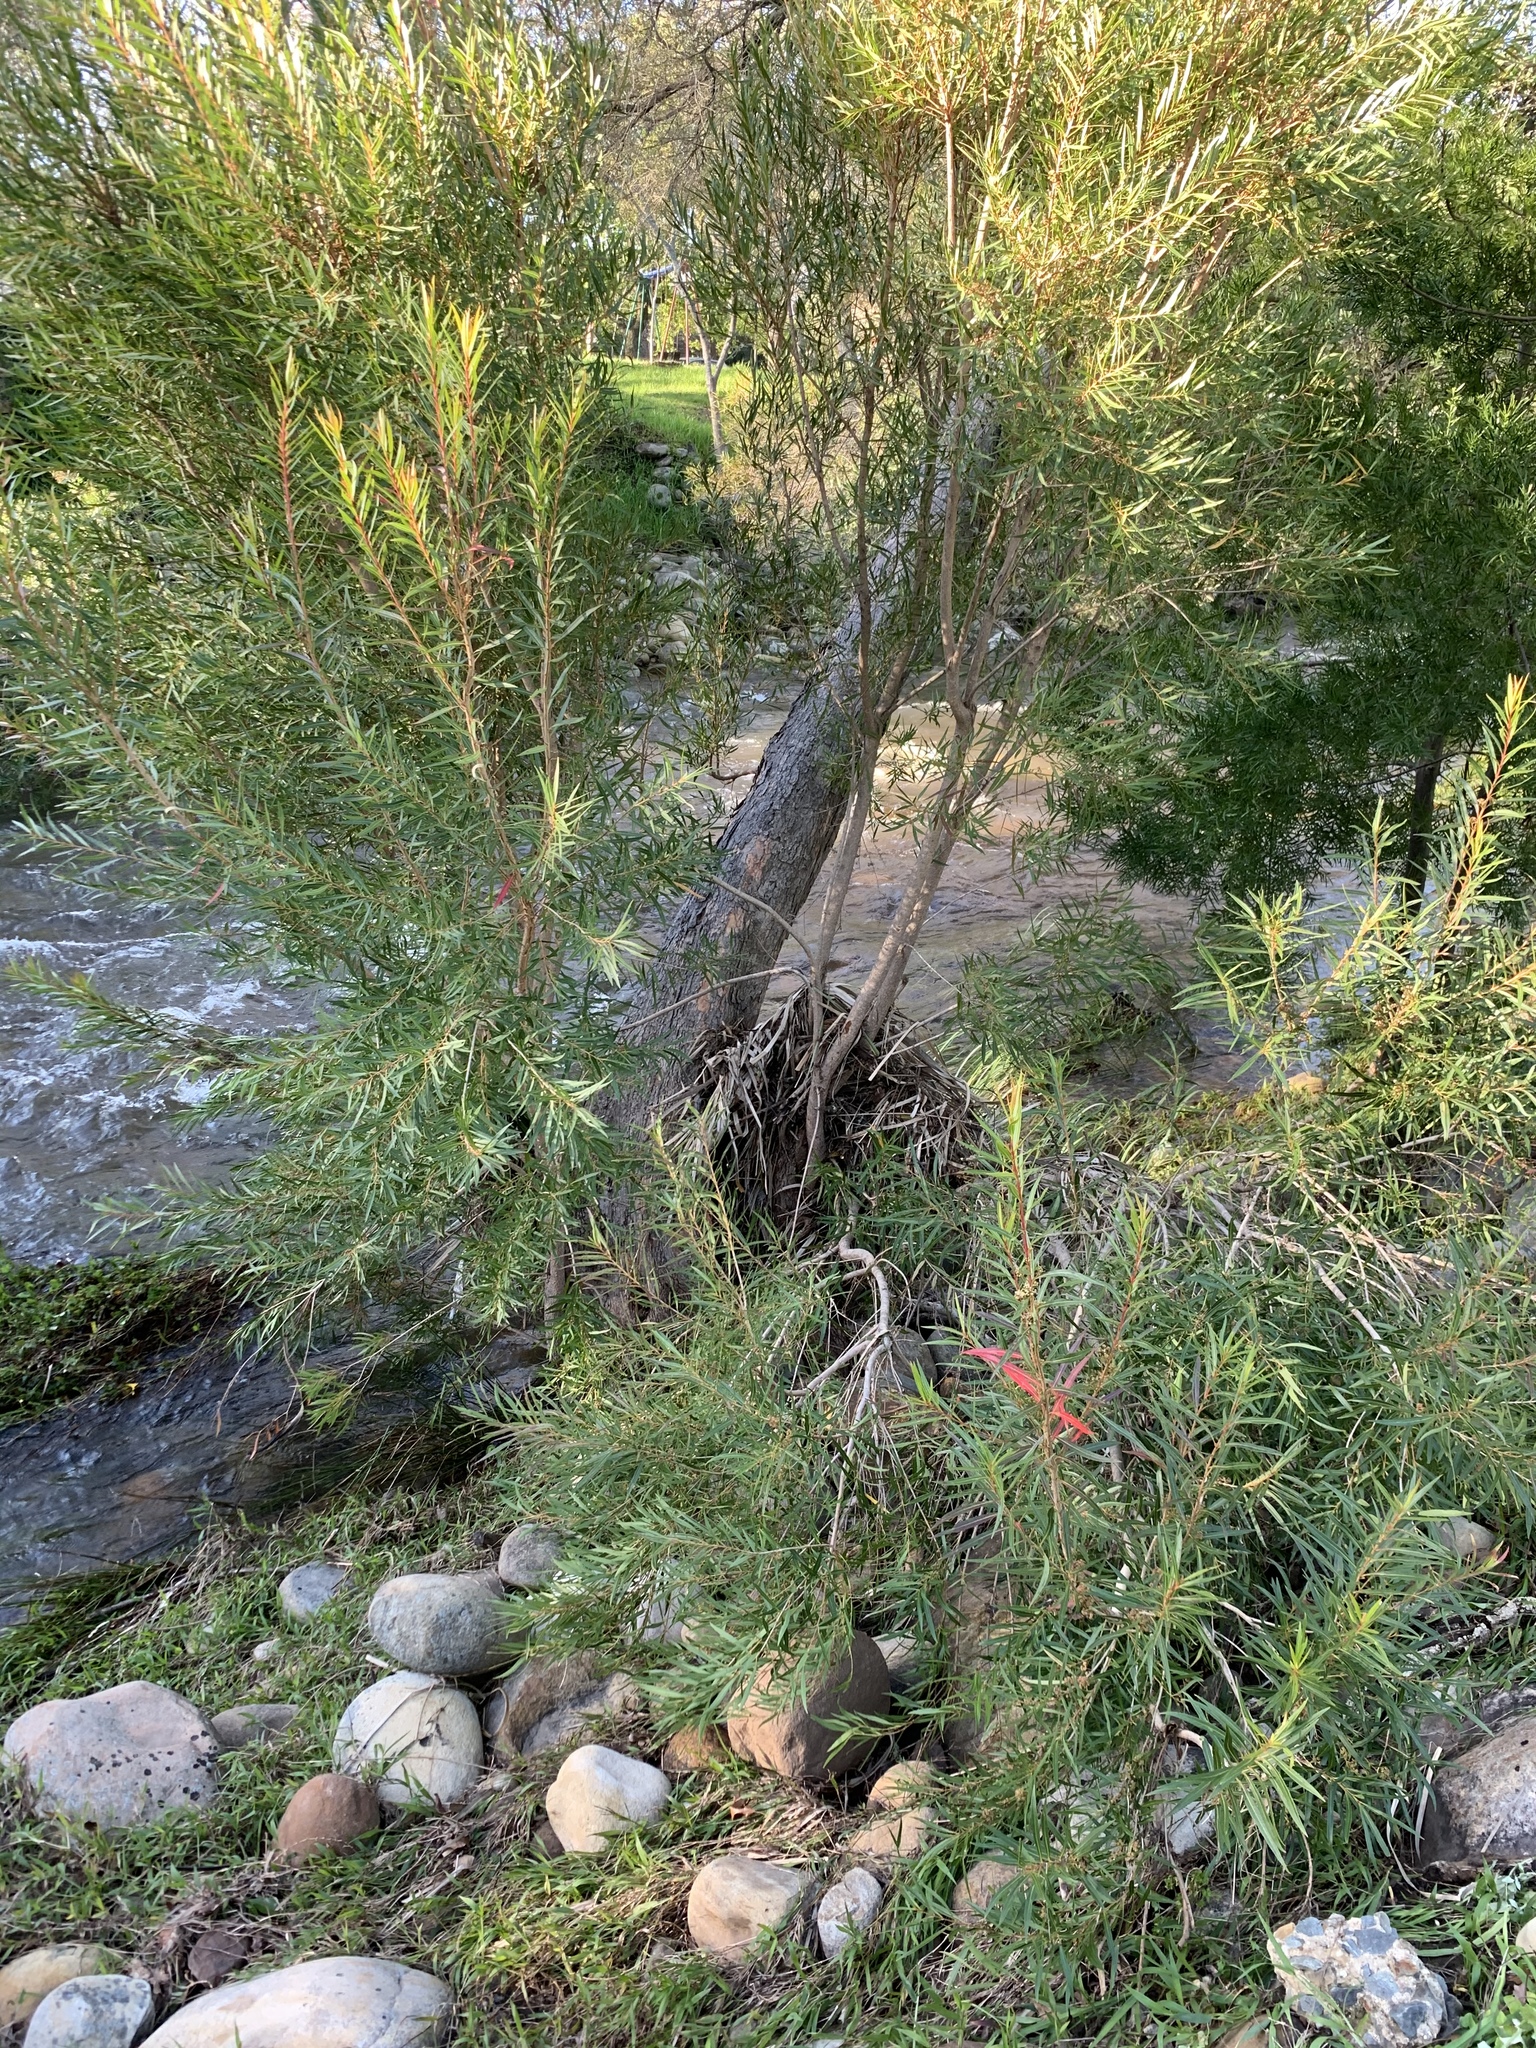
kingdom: Plantae
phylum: Tracheophyta
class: Magnoliopsida
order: Myrtales
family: Myrtaceae
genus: Callistemon
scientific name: Callistemon lanceolatus
